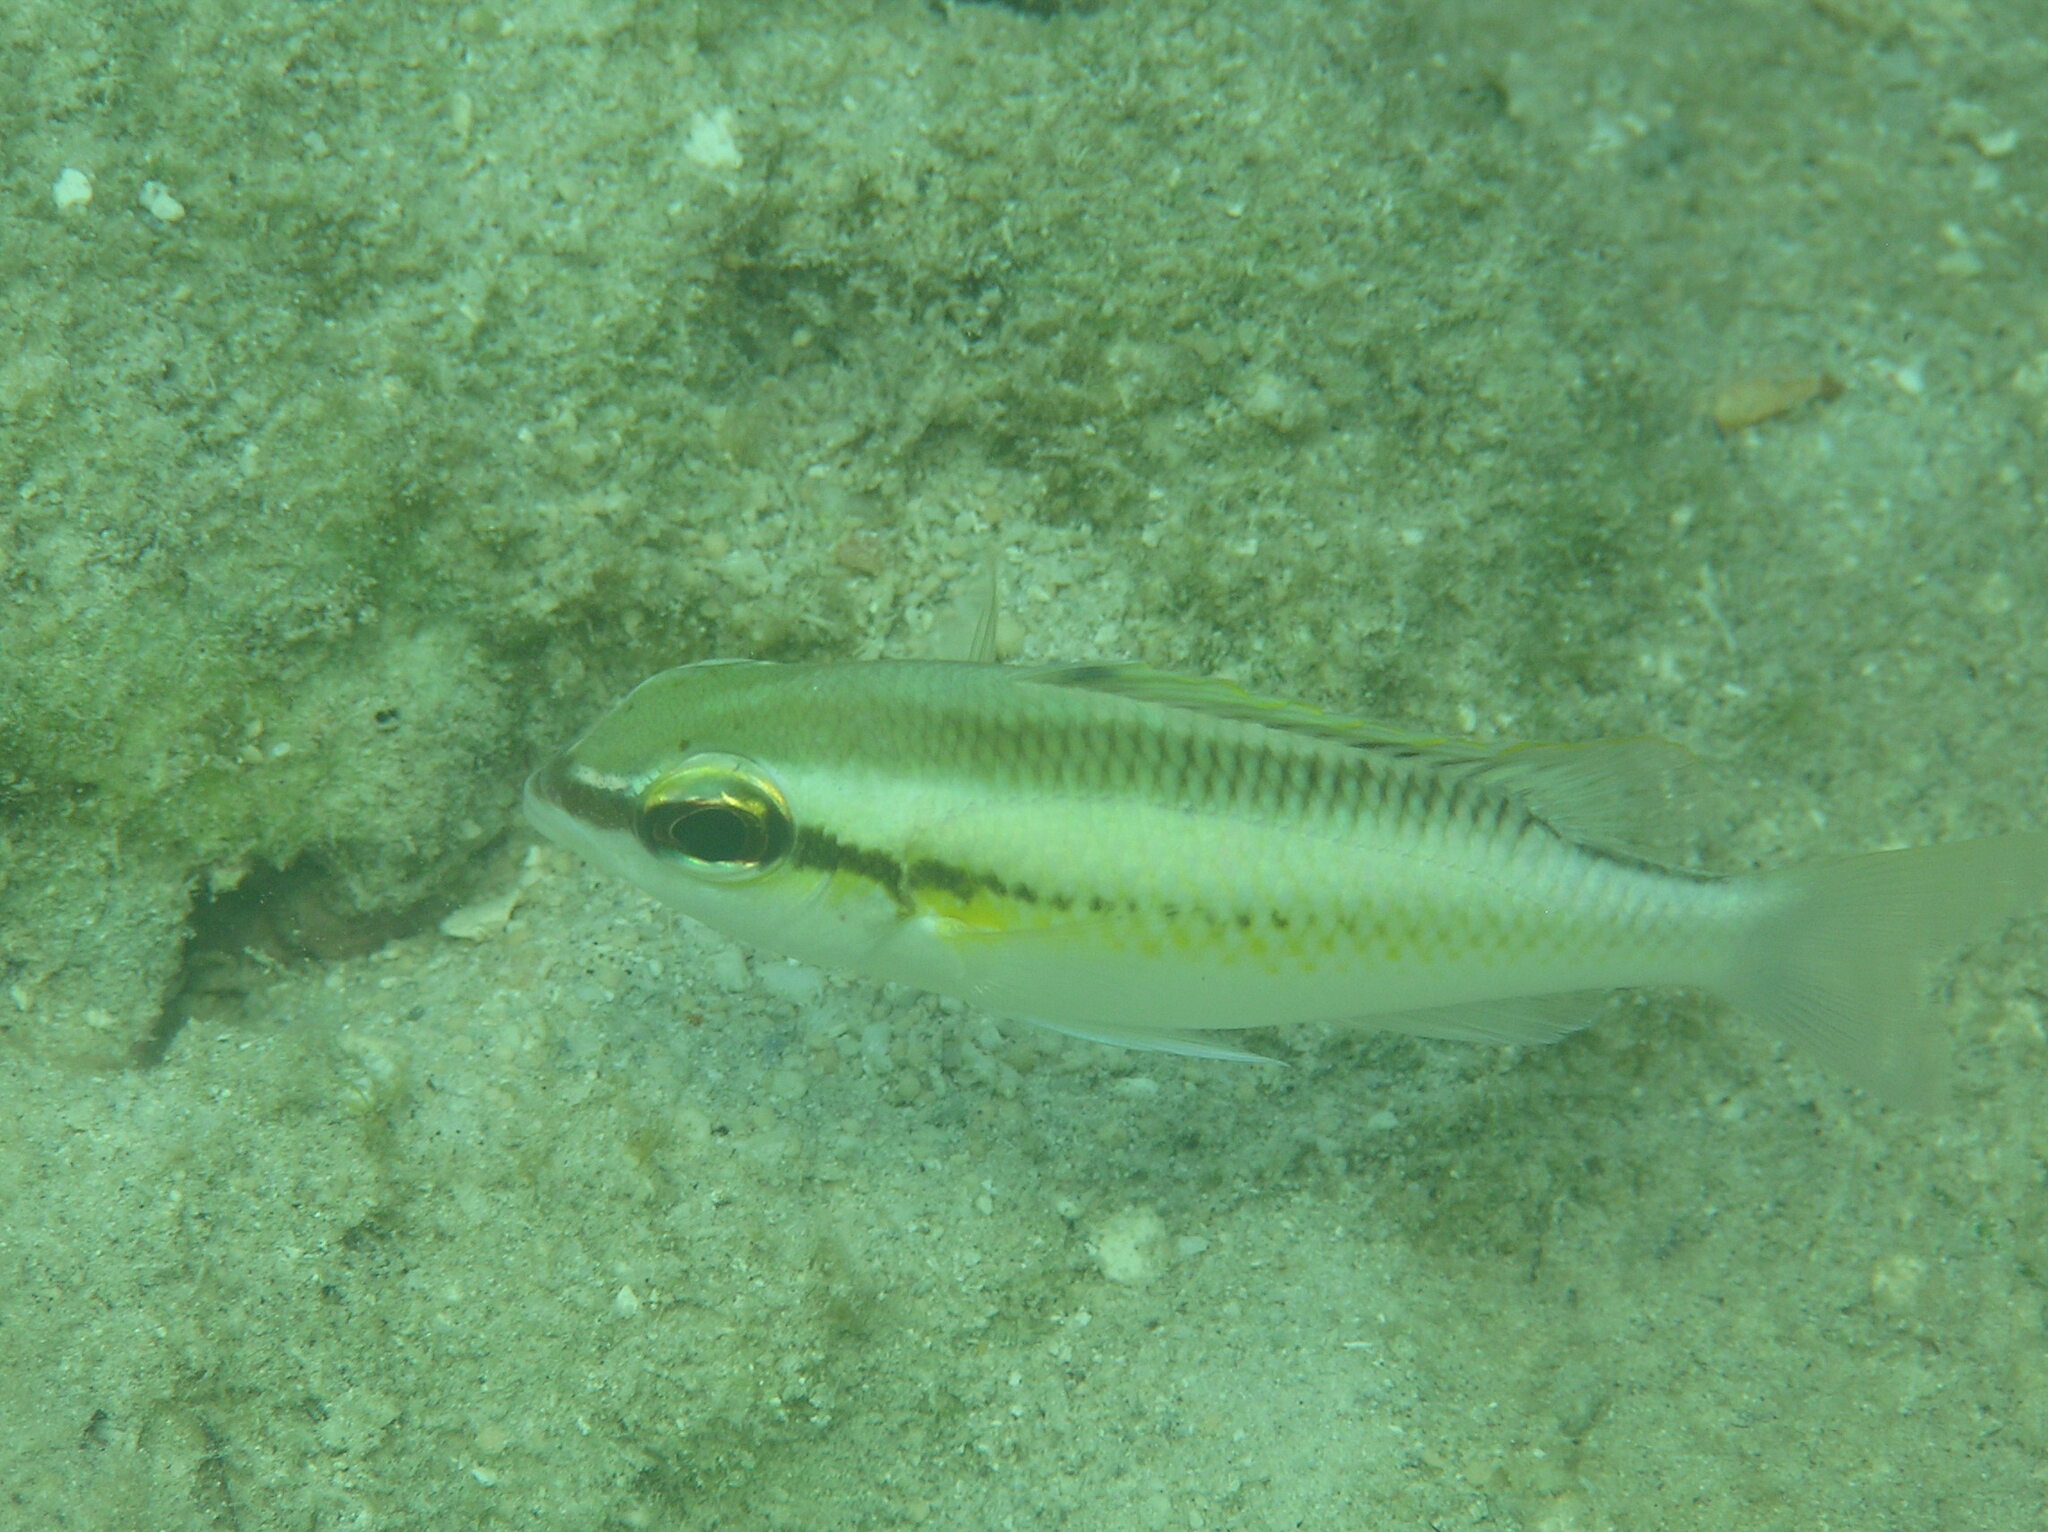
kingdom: Animalia
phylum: Chordata
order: Perciformes
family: Nemipteridae
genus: Scolopsis
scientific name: Scolopsis margaritifera
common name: Pearly monocle bream
